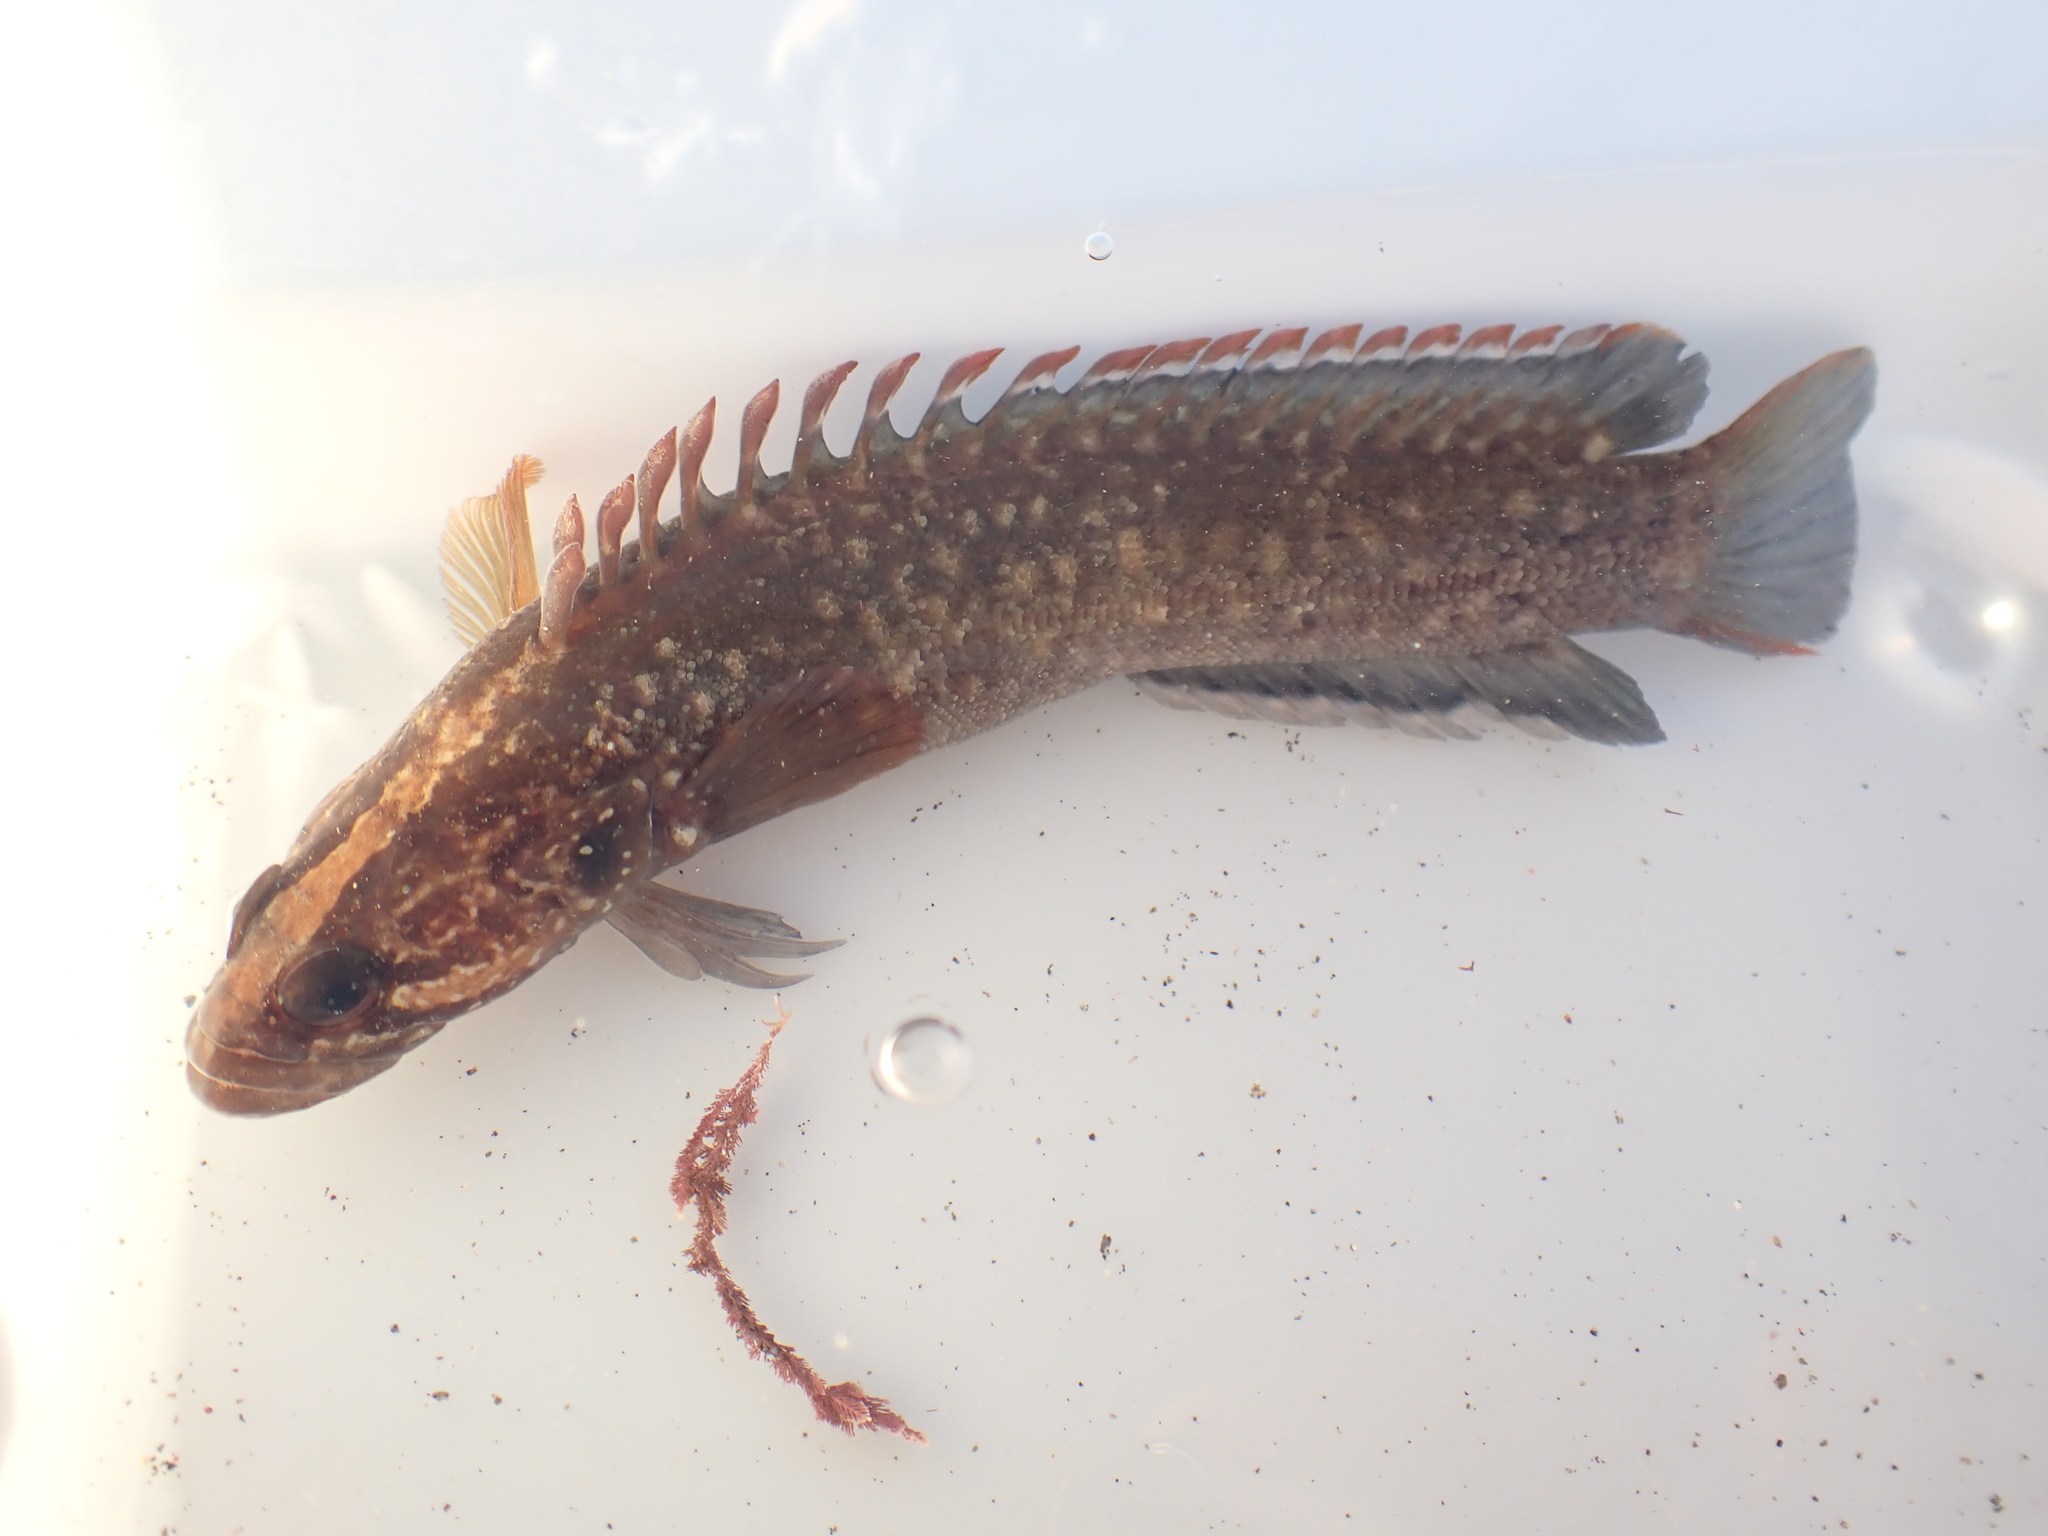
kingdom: Animalia
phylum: Chordata
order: Perciformes
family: Plesiopidae
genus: Acanthoclinus
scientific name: Acanthoclinus fuscus
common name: Olive rockfish
